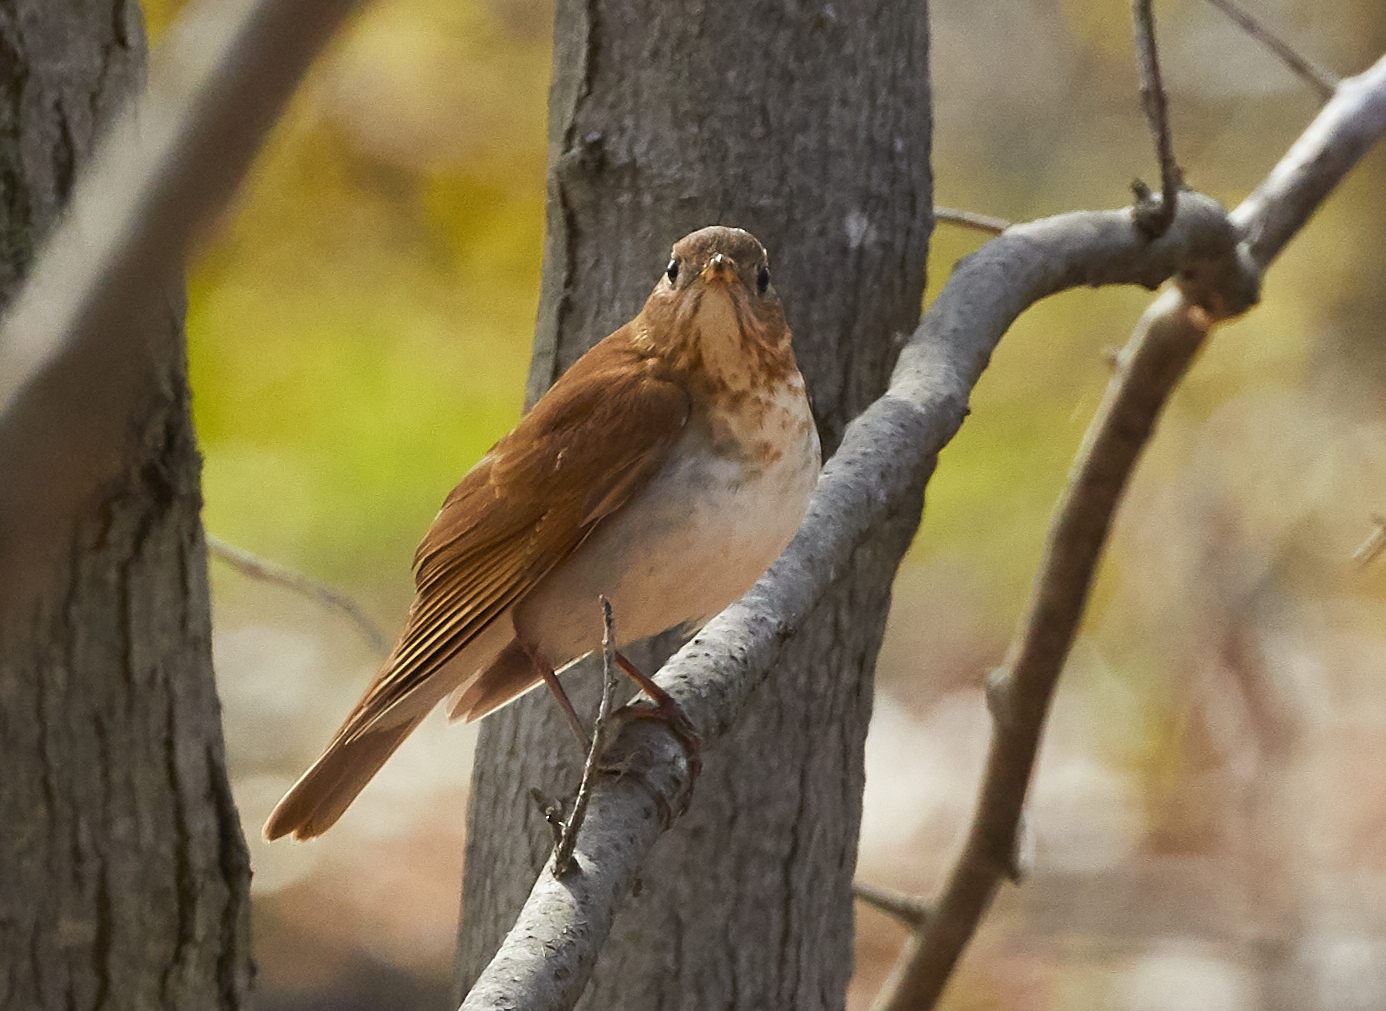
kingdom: Animalia
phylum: Chordata
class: Aves
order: Passeriformes
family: Turdidae
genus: Catharus
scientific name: Catharus fuscescens
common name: Veery
